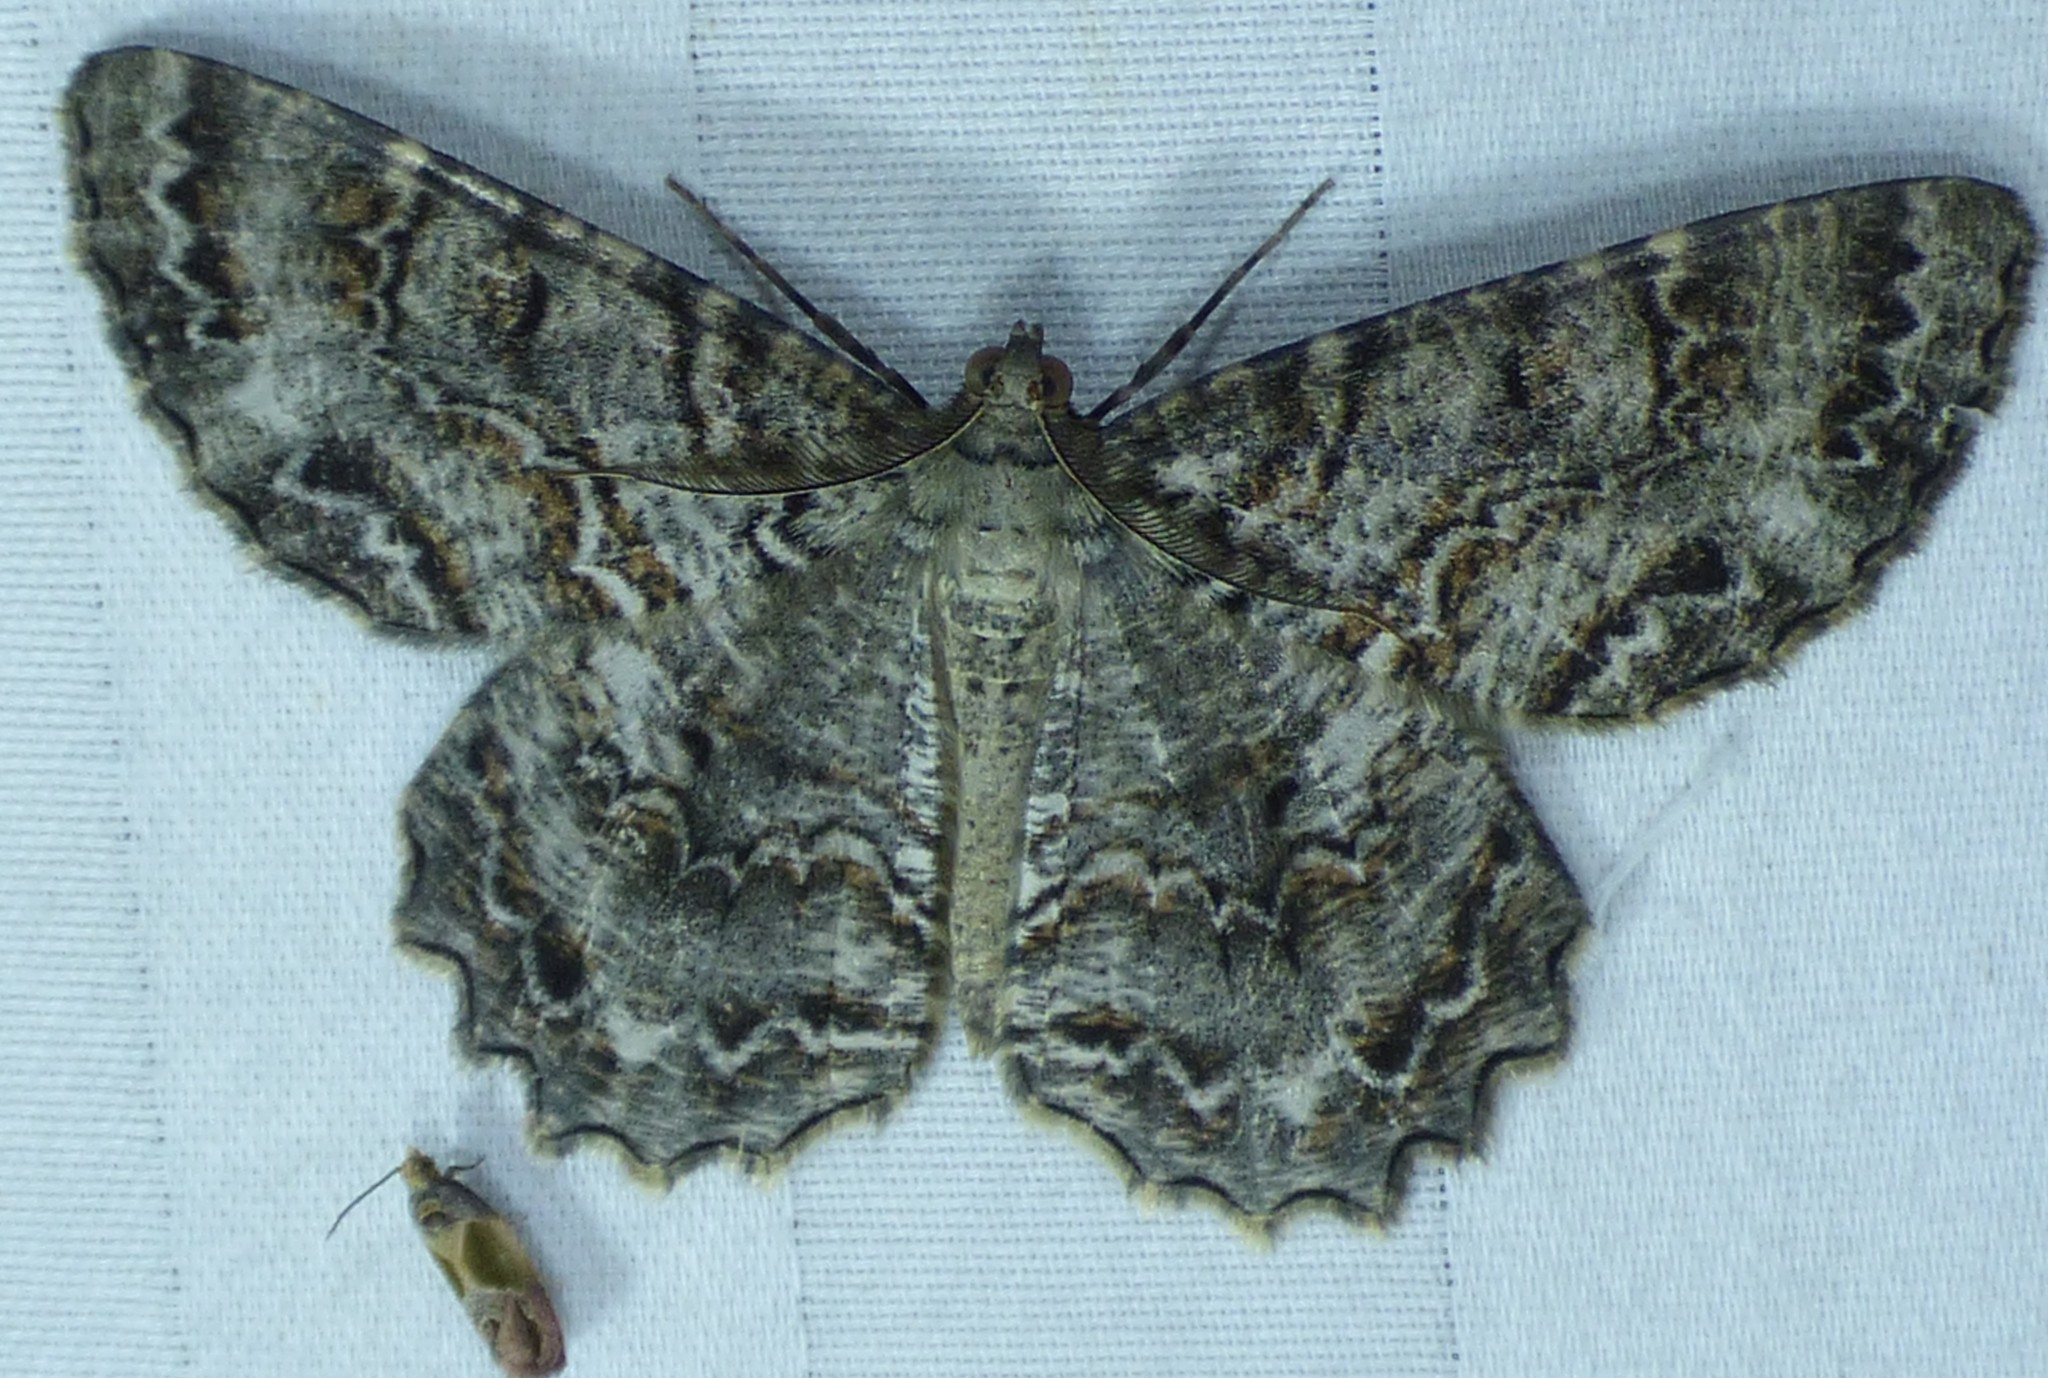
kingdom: Animalia
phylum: Arthropoda
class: Insecta
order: Lepidoptera
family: Geometridae
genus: Epimecis
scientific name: Epimecis hortaria
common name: Tulip-tree beauty
